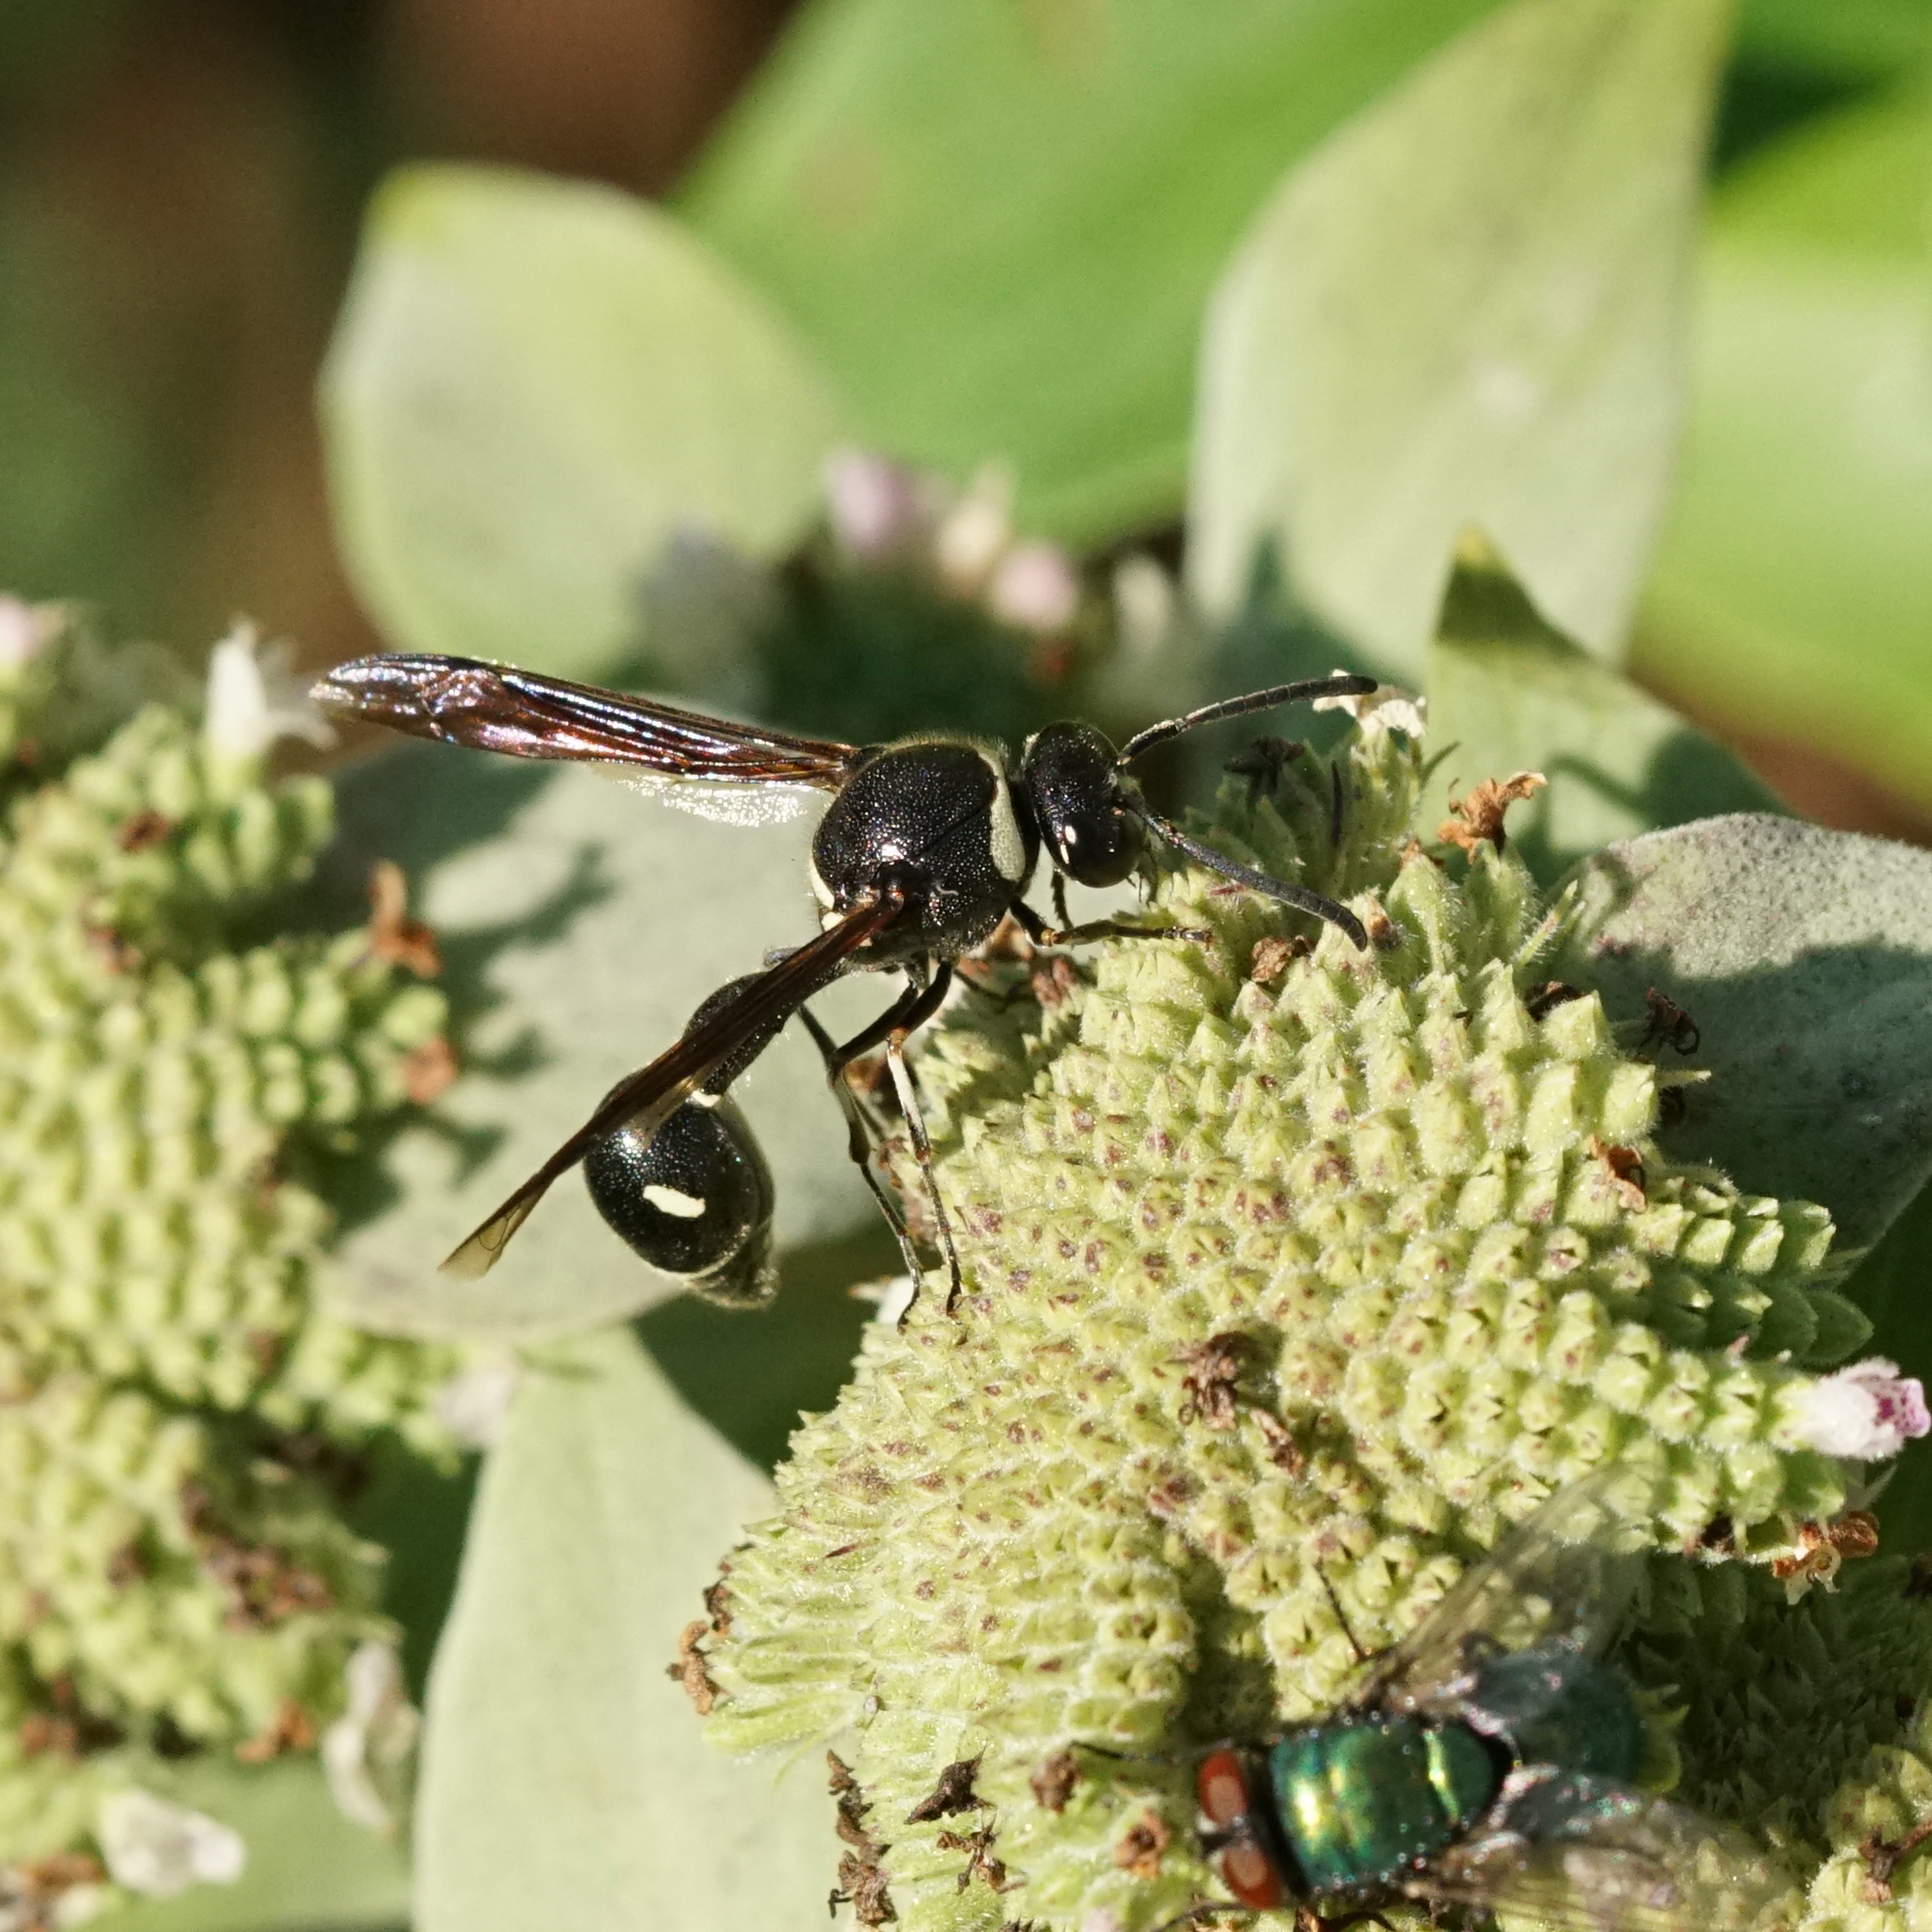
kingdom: Animalia
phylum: Arthropoda
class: Insecta
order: Hymenoptera
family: Vespidae
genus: Eumenes
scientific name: Eumenes fraternus
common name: Fraternal potter wasp
